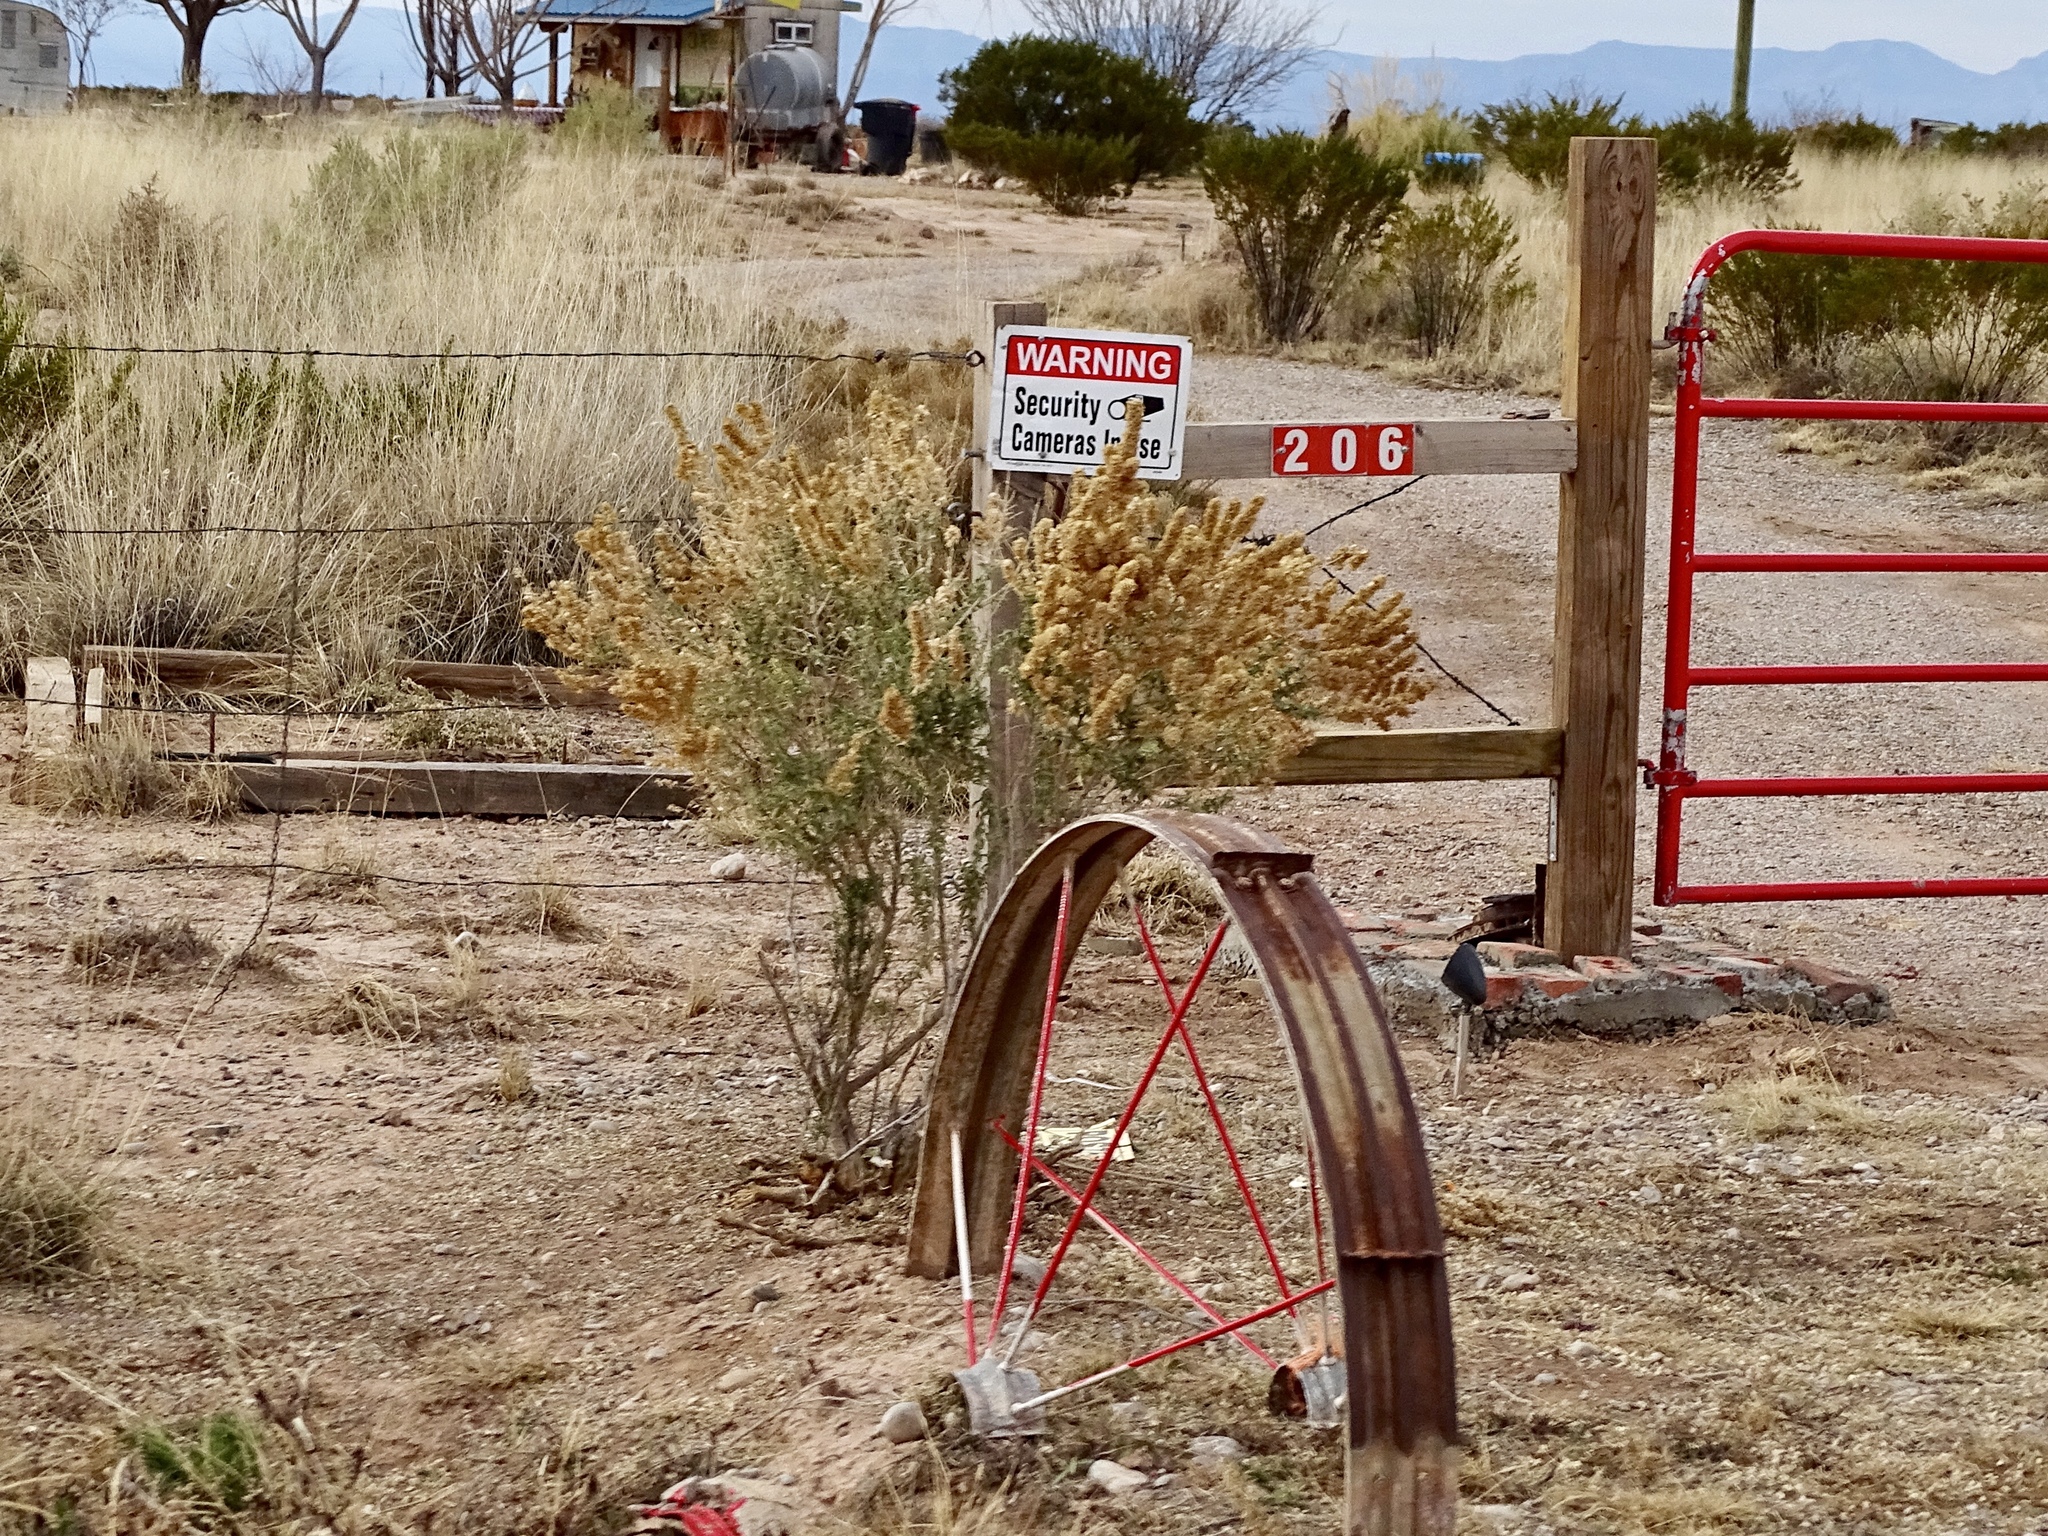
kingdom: Plantae
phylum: Tracheophyta
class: Magnoliopsida
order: Caryophyllales
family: Amaranthaceae
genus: Atriplex
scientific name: Atriplex canescens
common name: Four-wing saltbush
